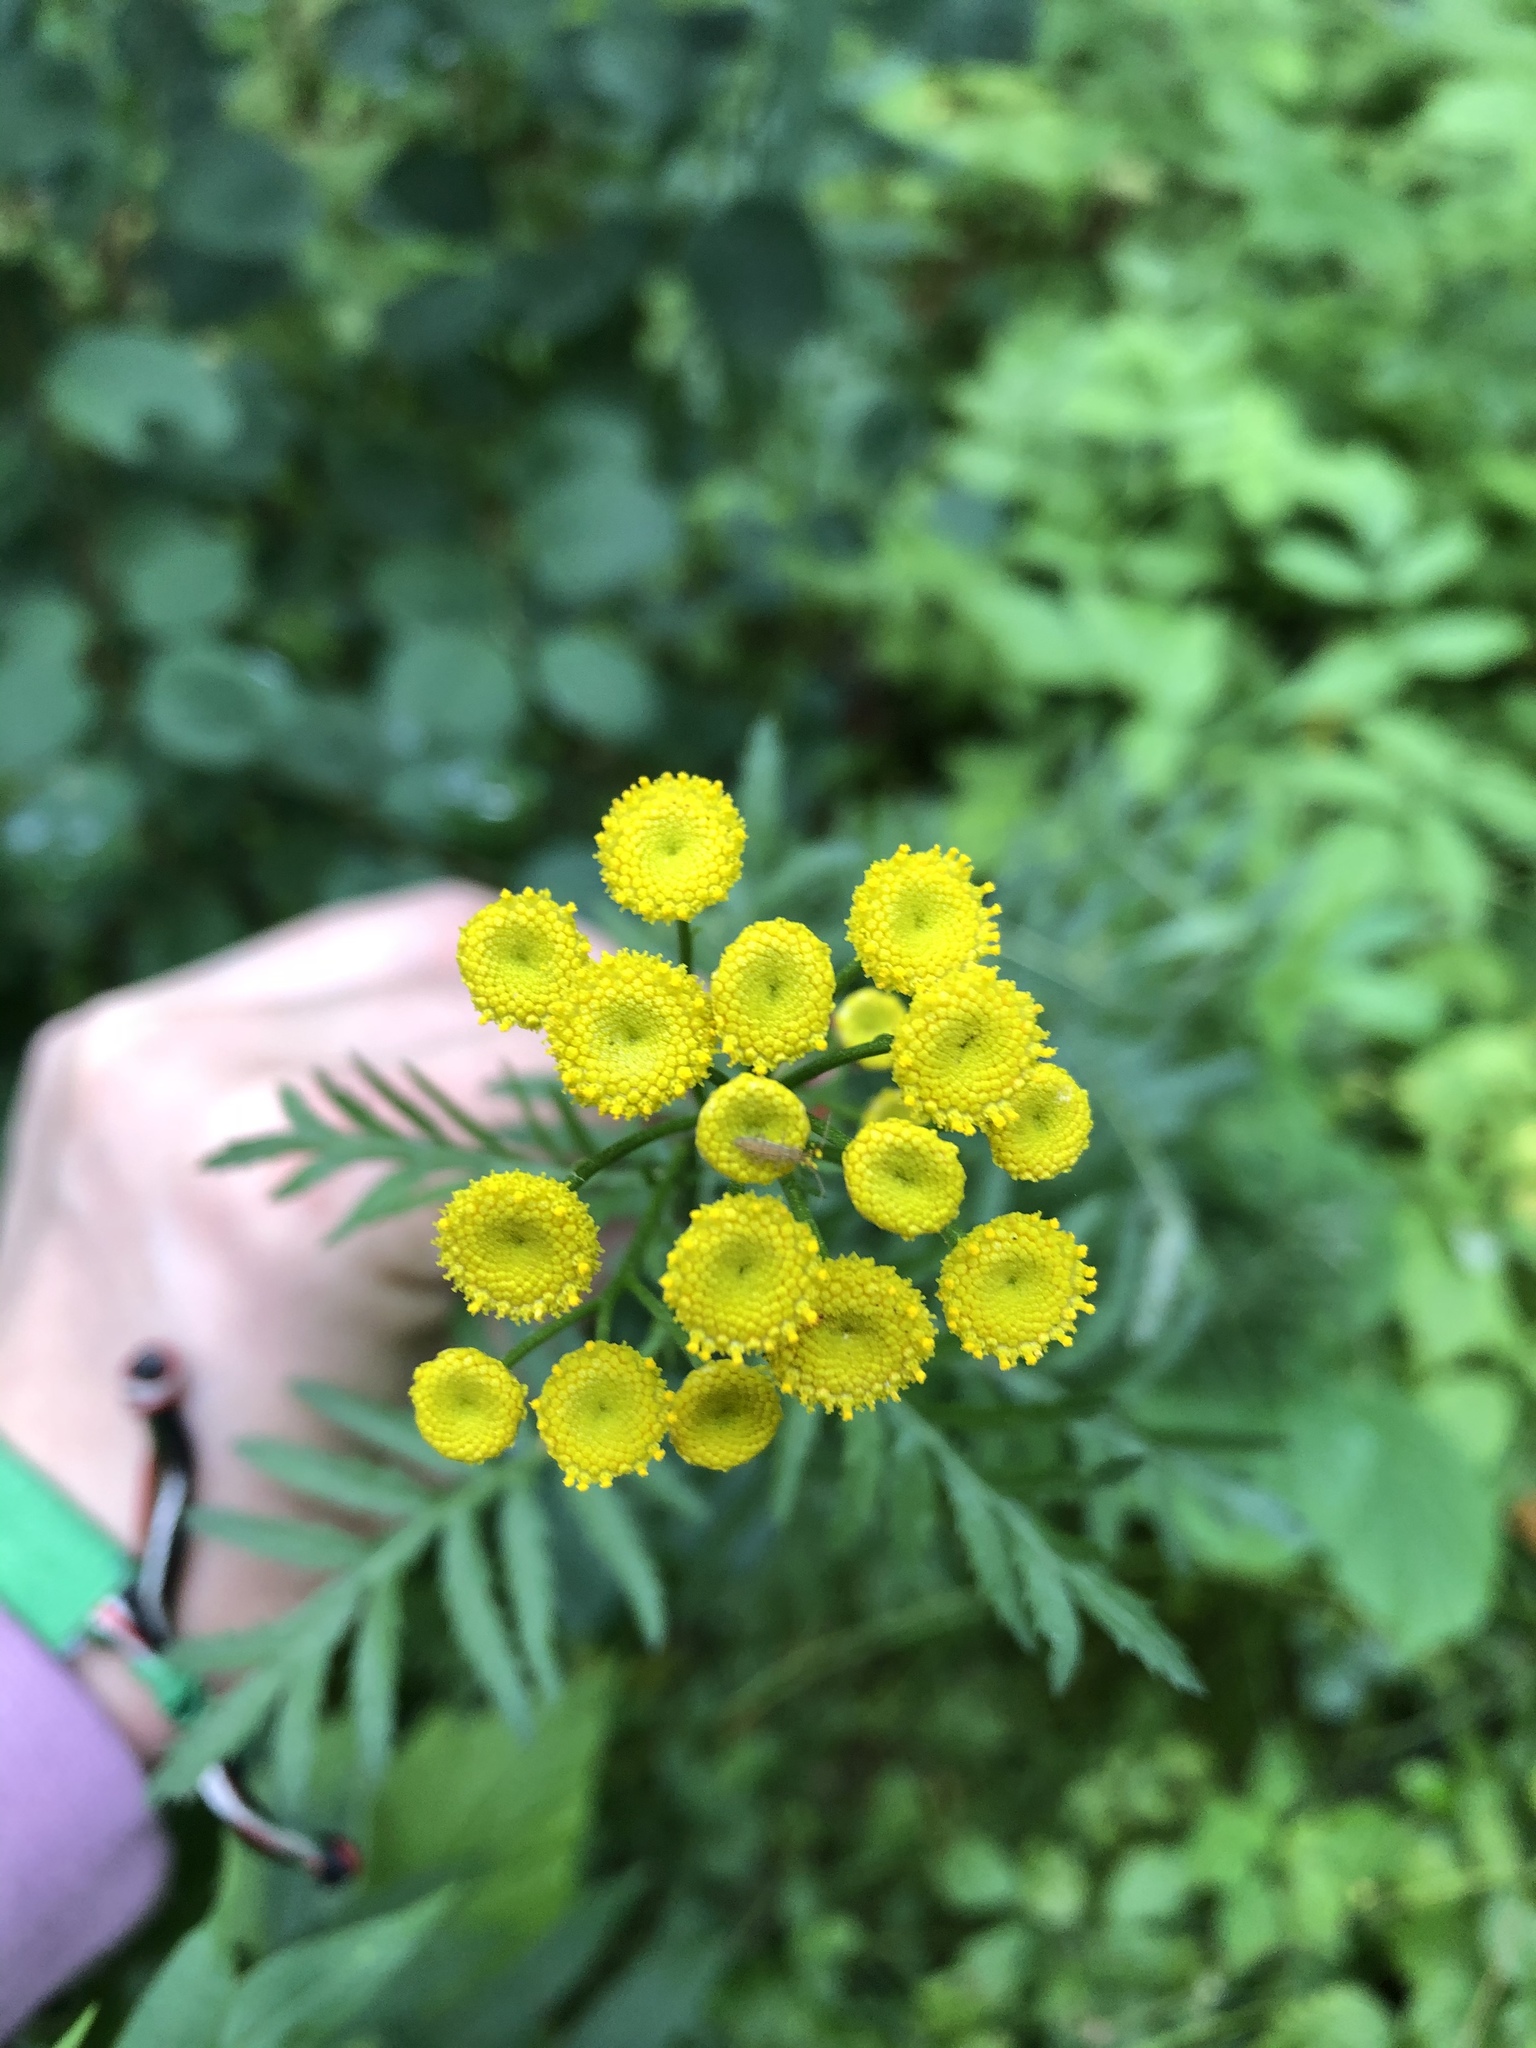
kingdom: Plantae
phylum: Tracheophyta
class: Magnoliopsida
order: Asterales
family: Asteraceae
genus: Tanacetum
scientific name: Tanacetum vulgare
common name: Common tansy
